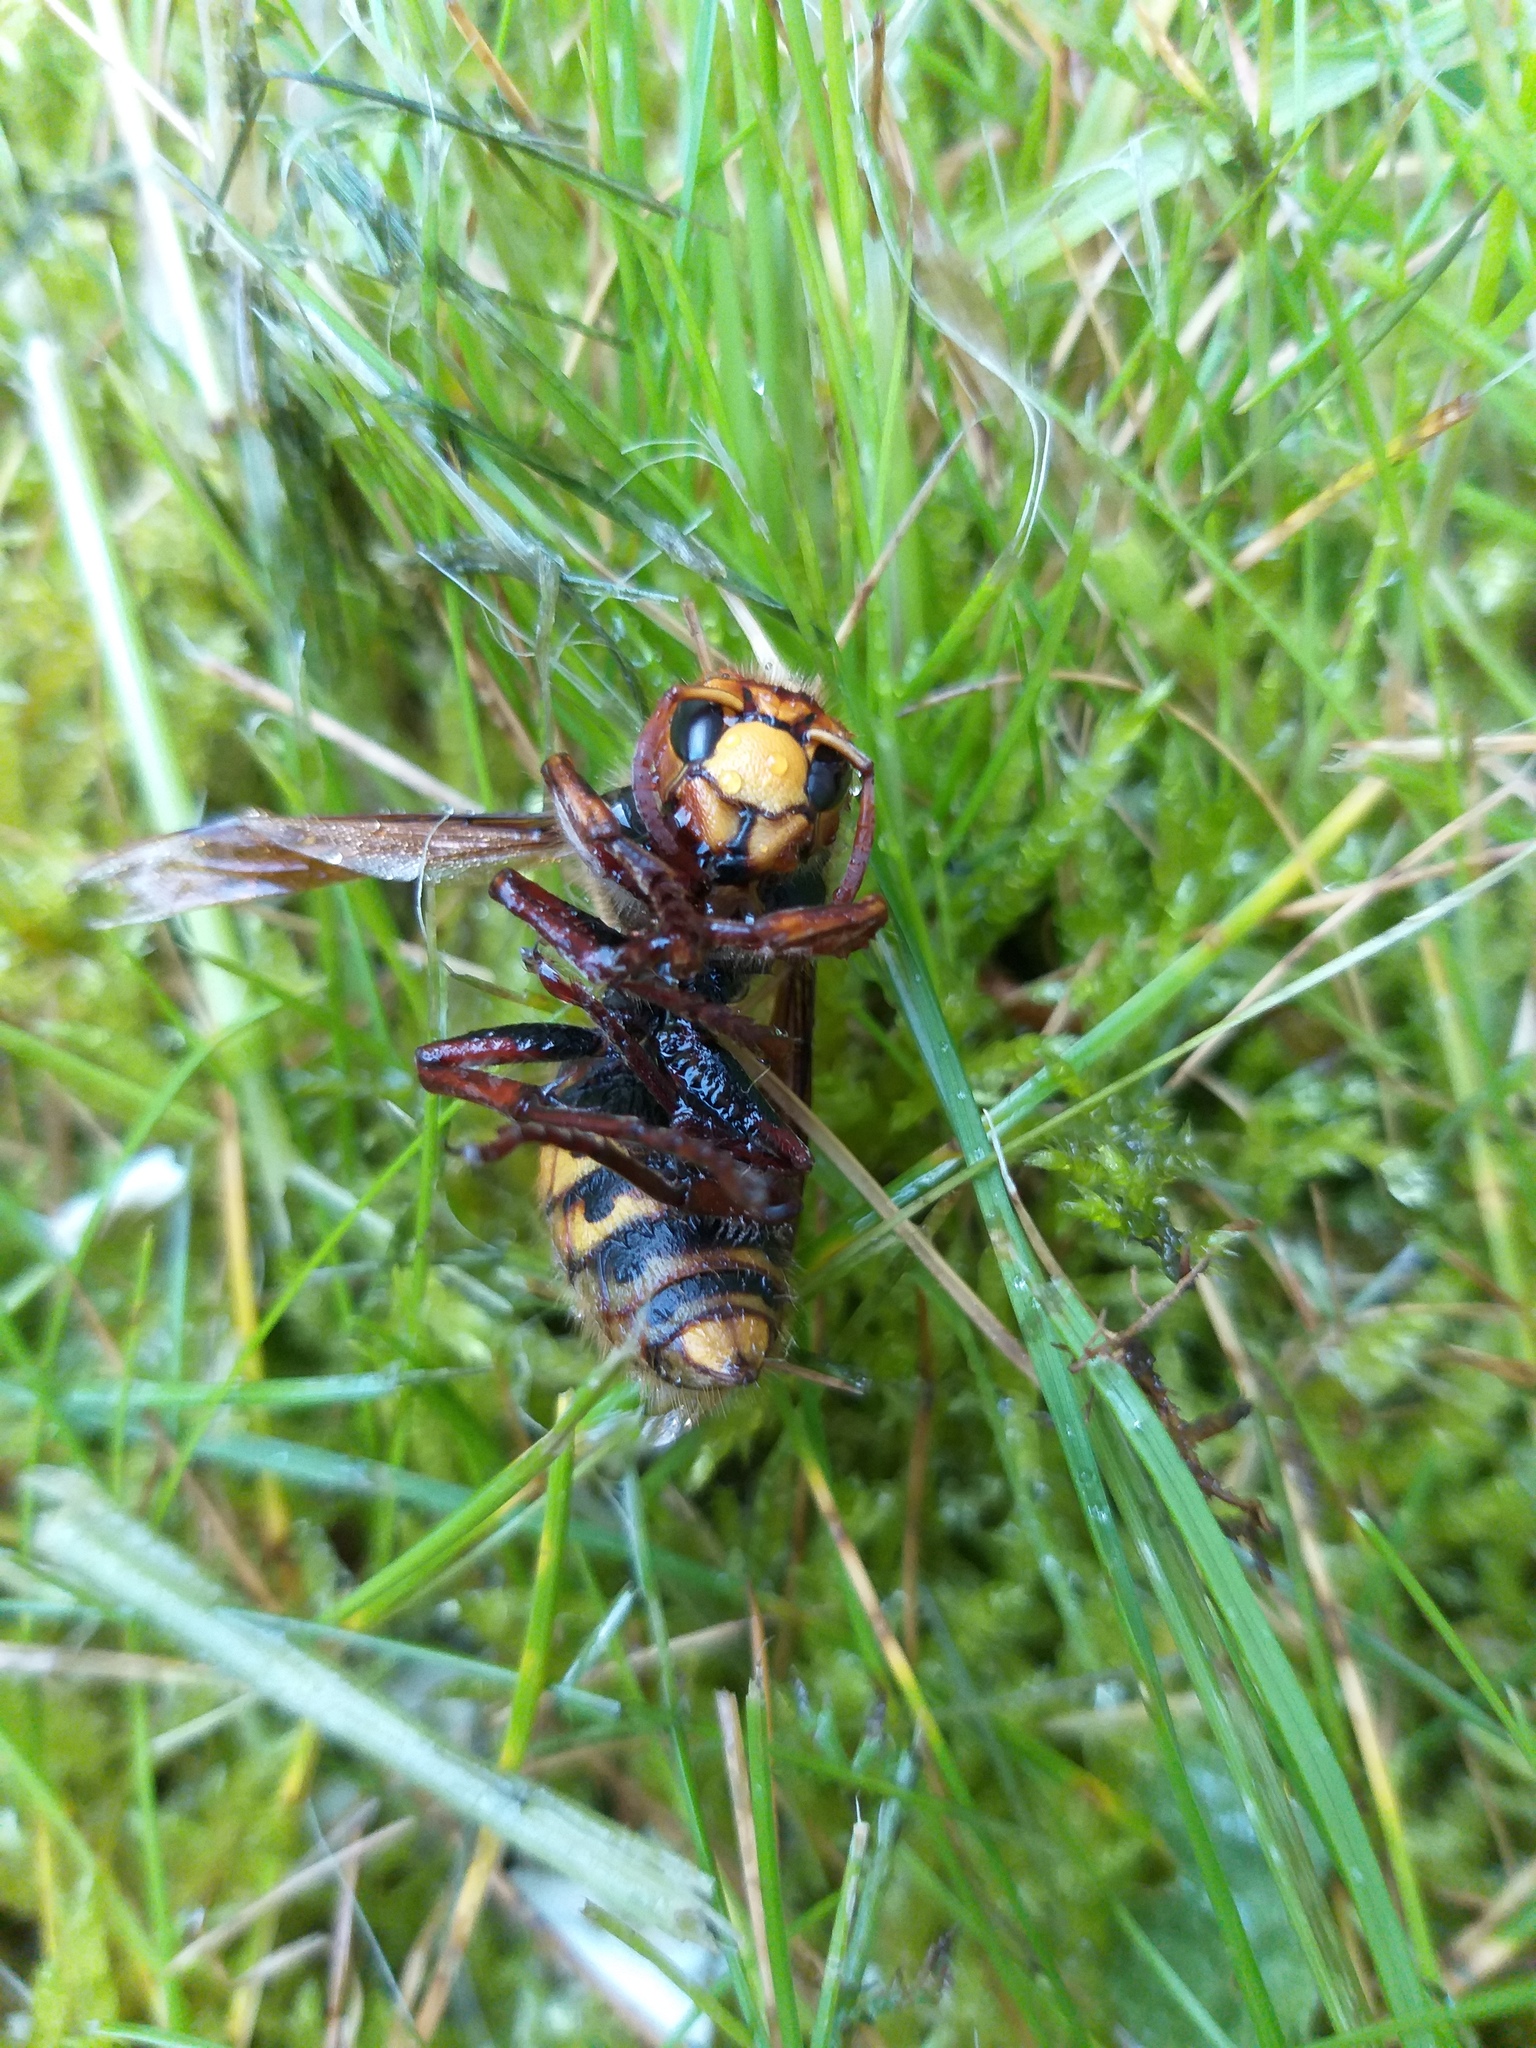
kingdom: Animalia
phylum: Arthropoda
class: Insecta
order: Hymenoptera
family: Vespidae
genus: Vespa
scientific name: Vespa crabro
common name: Hornet
